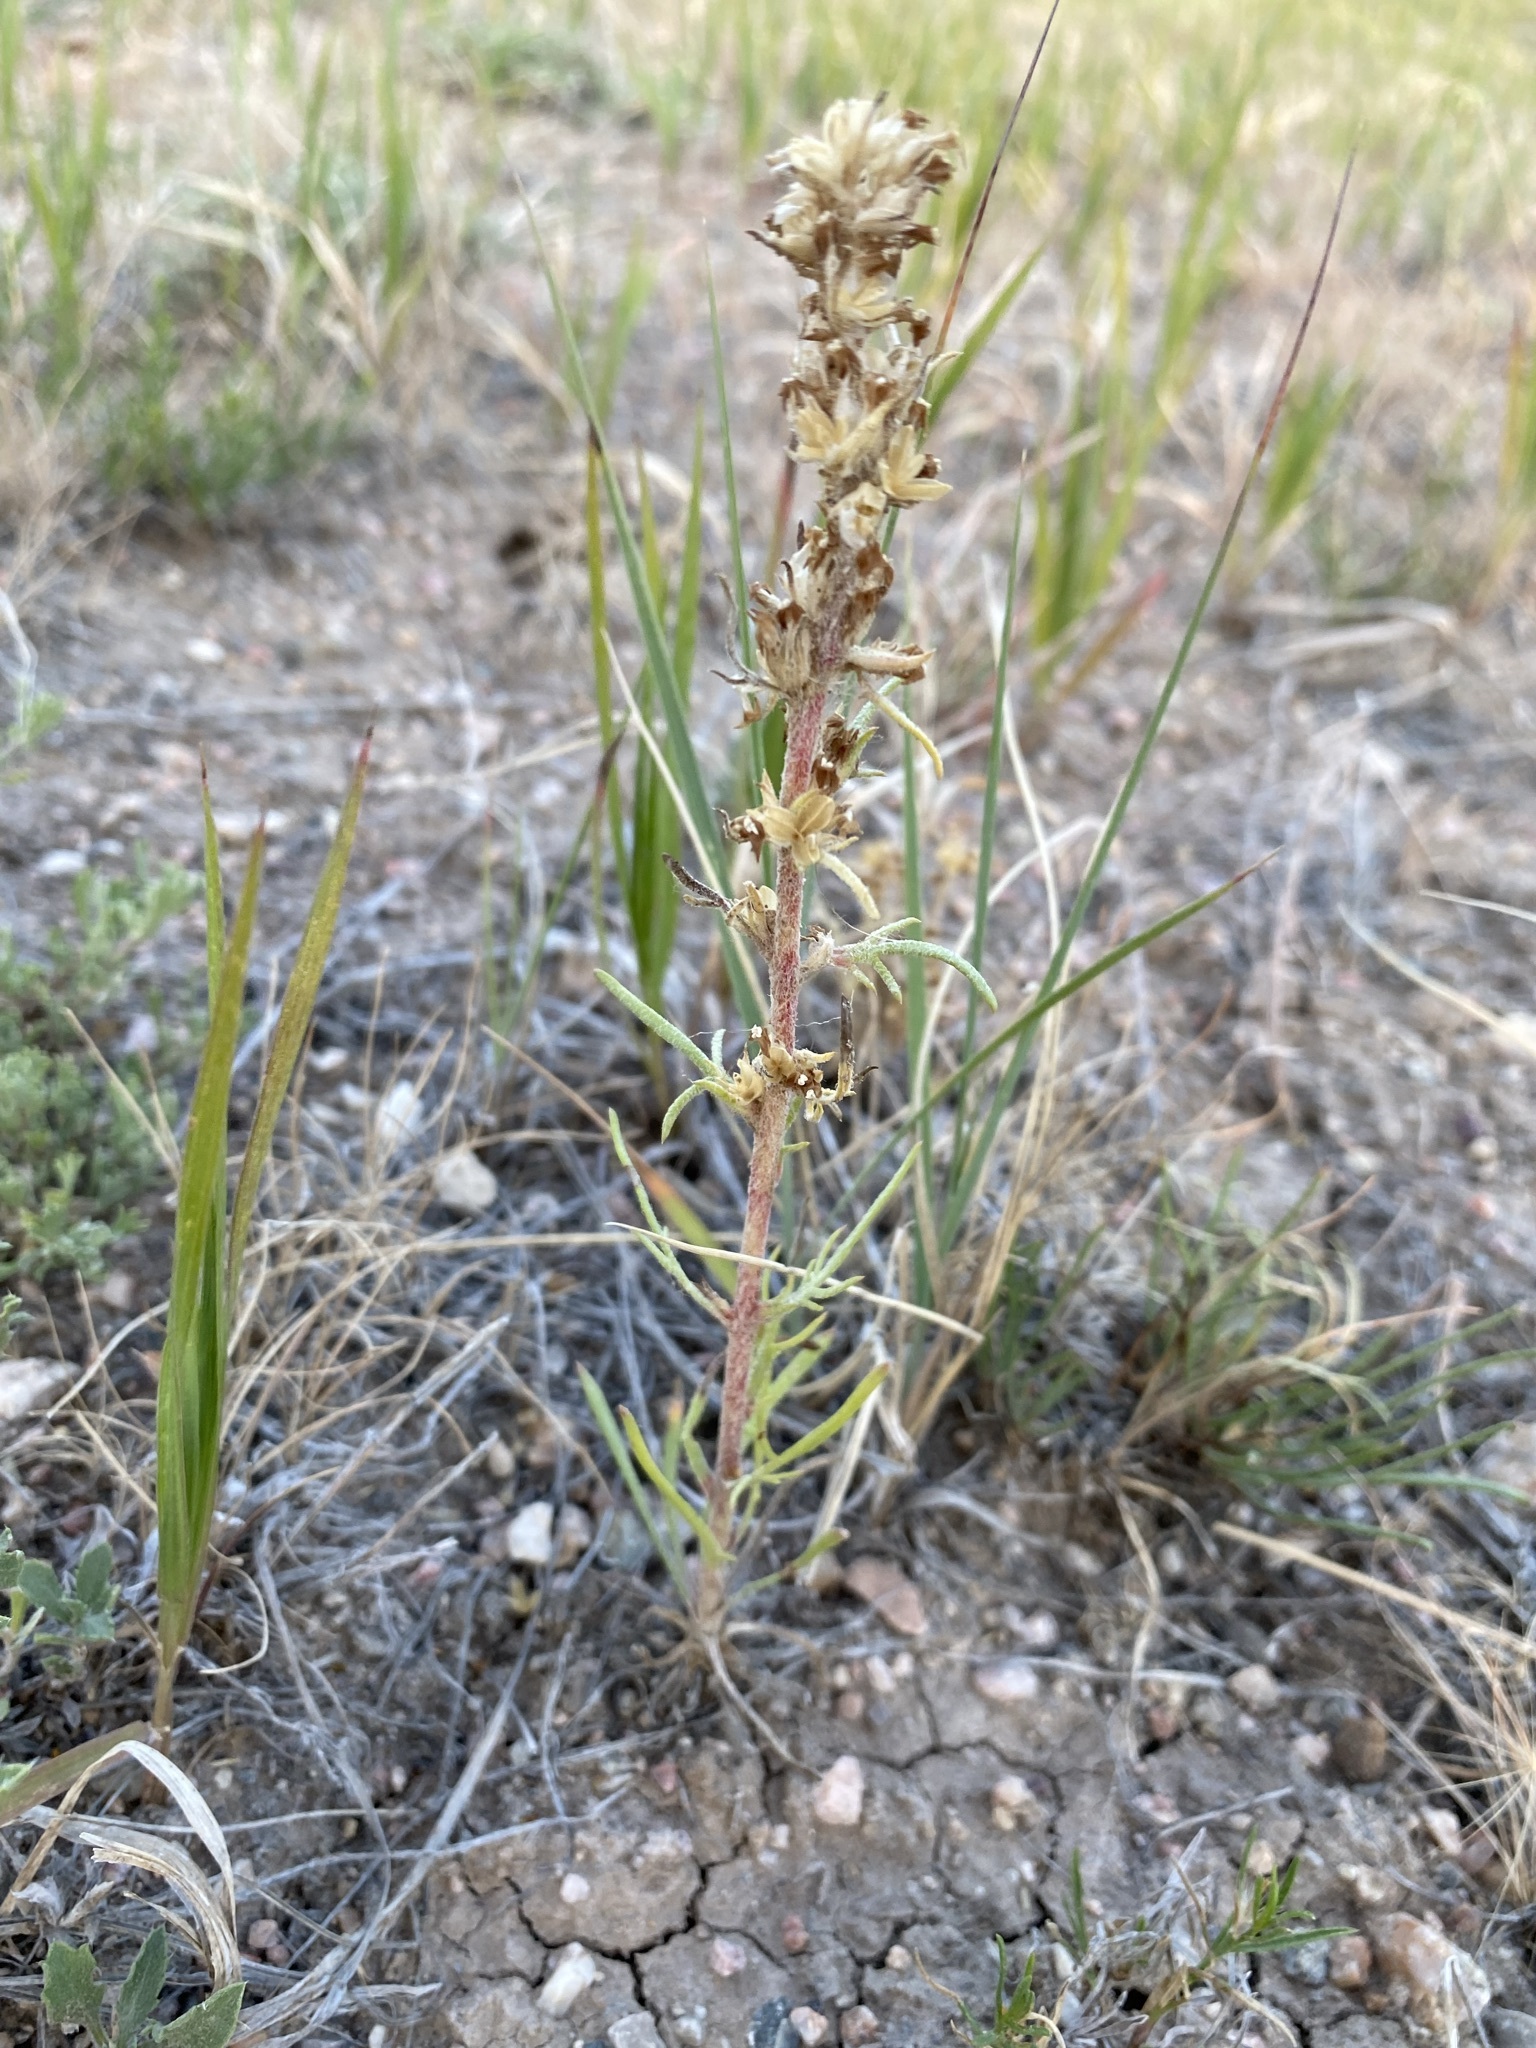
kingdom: Plantae
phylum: Tracheophyta
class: Magnoliopsida
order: Ericales
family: Polemoniaceae
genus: Ipomopsis
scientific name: Ipomopsis spicata
